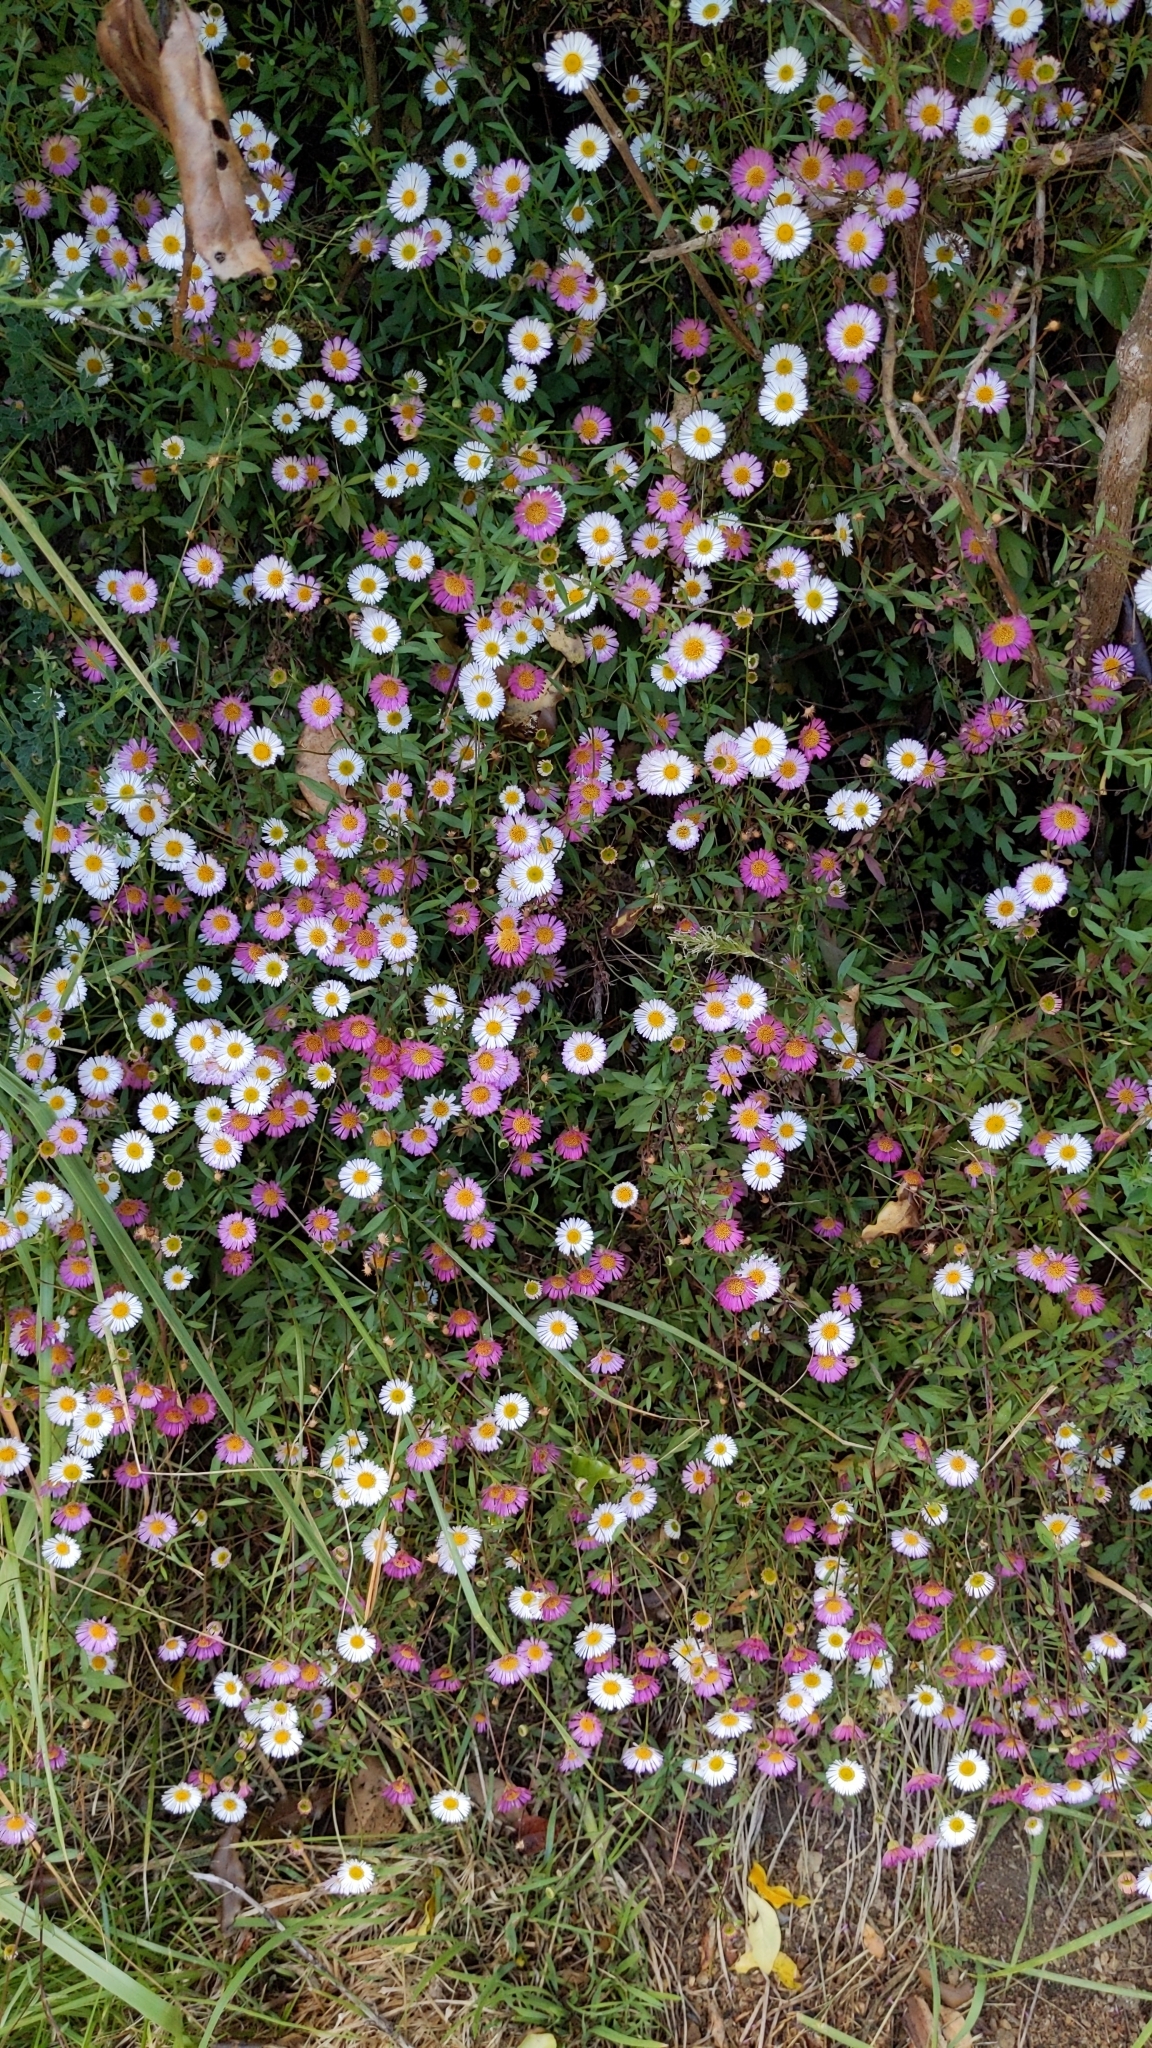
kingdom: Plantae
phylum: Tracheophyta
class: Magnoliopsida
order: Asterales
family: Asteraceae
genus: Erigeron
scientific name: Erigeron karvinskianus
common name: Mexican fleabane
